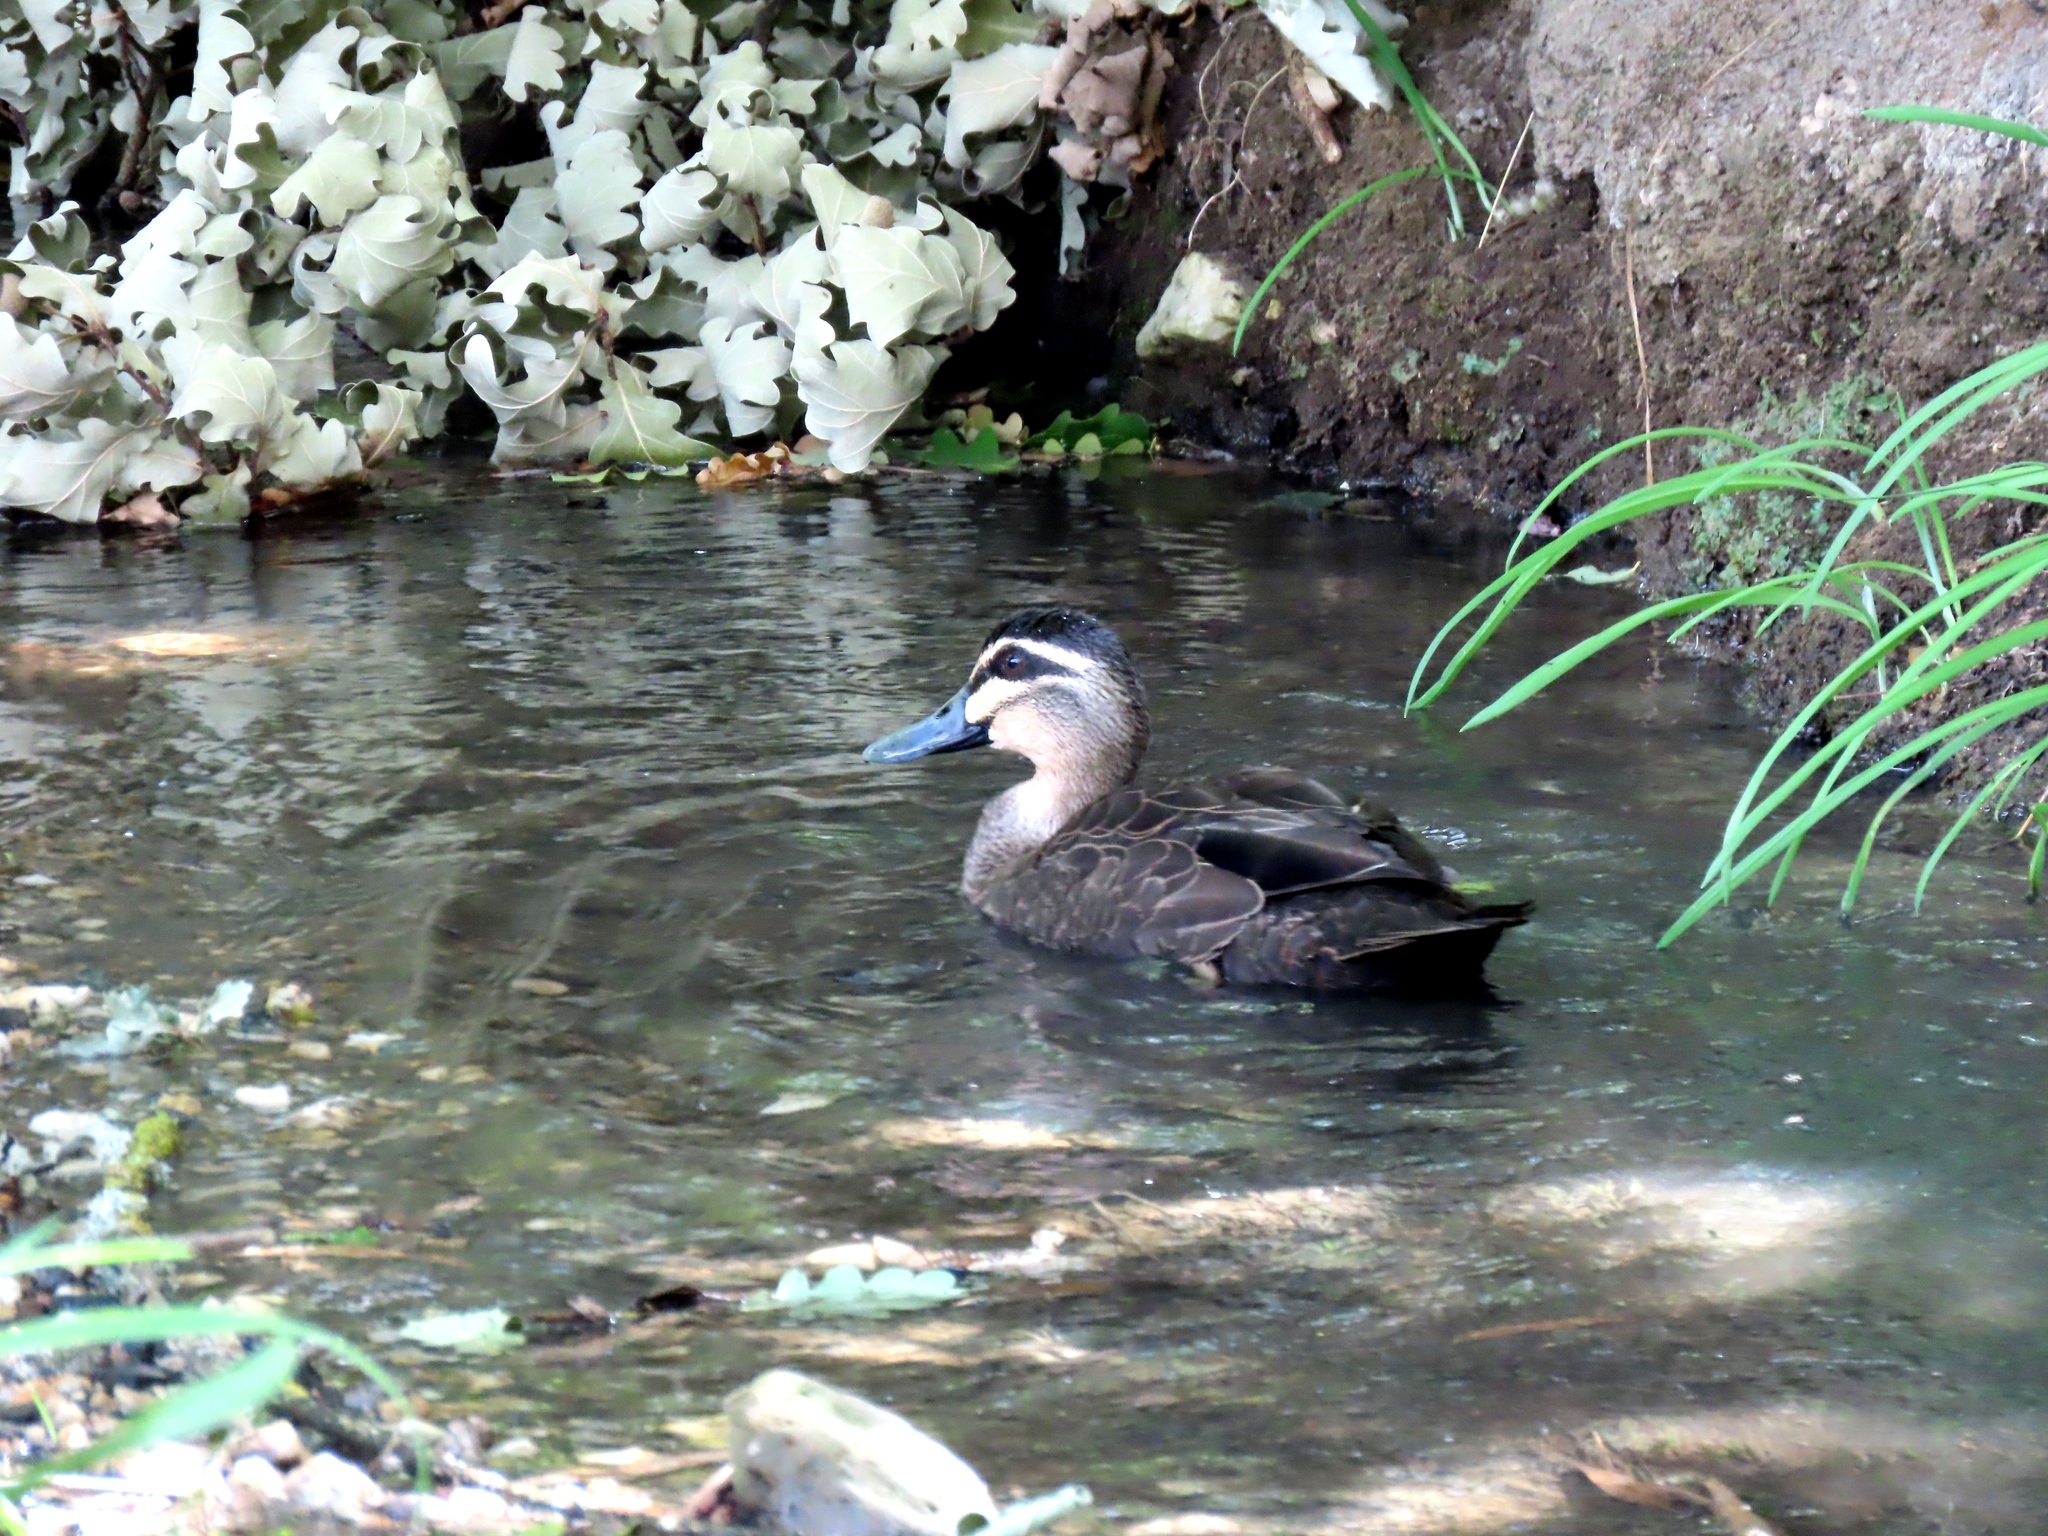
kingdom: Animalia
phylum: Chordata
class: Aves
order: Anseriformes
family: Anatidae
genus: Anas
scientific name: Anas superciliosa
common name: Pacific black duck
